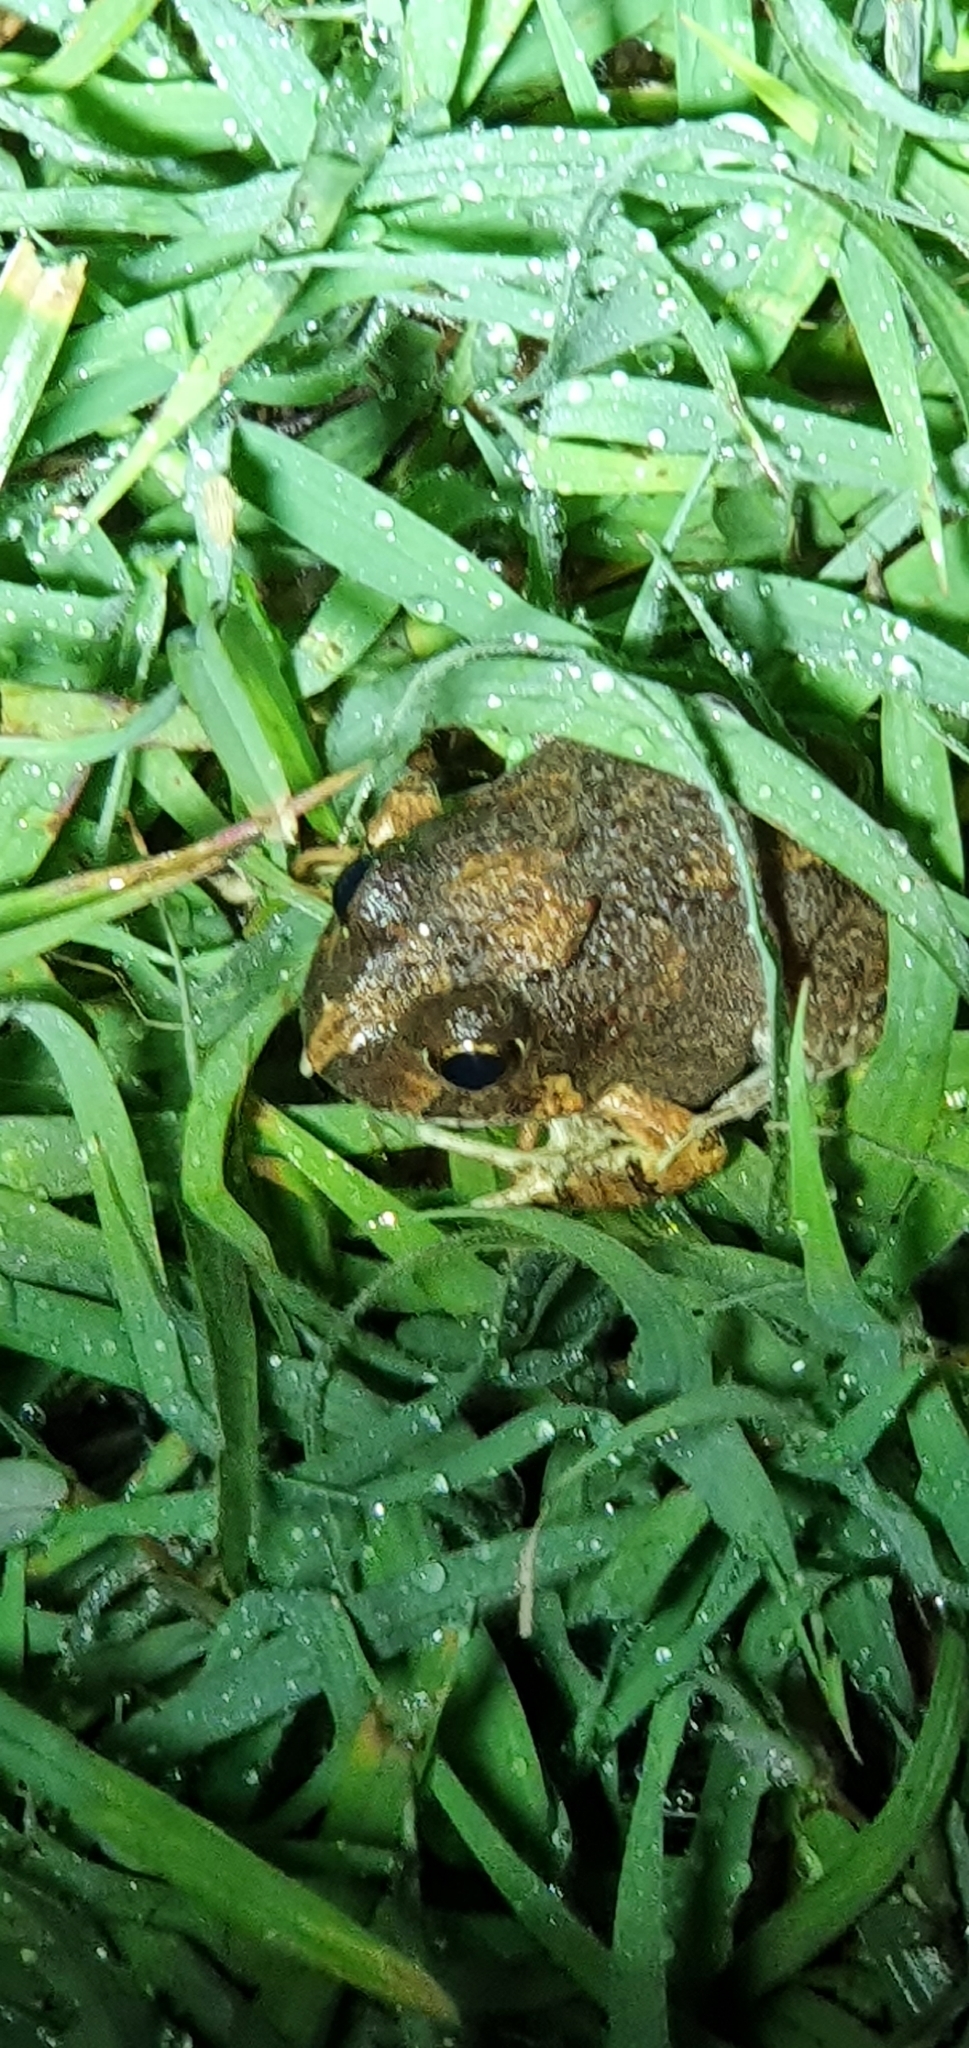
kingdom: Animalia
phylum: Chordata
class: Amphibia
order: Anura
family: Limnodynastidae
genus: Platyplectrum
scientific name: Platyplectrum ornatum
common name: Ornate burrowing frog
